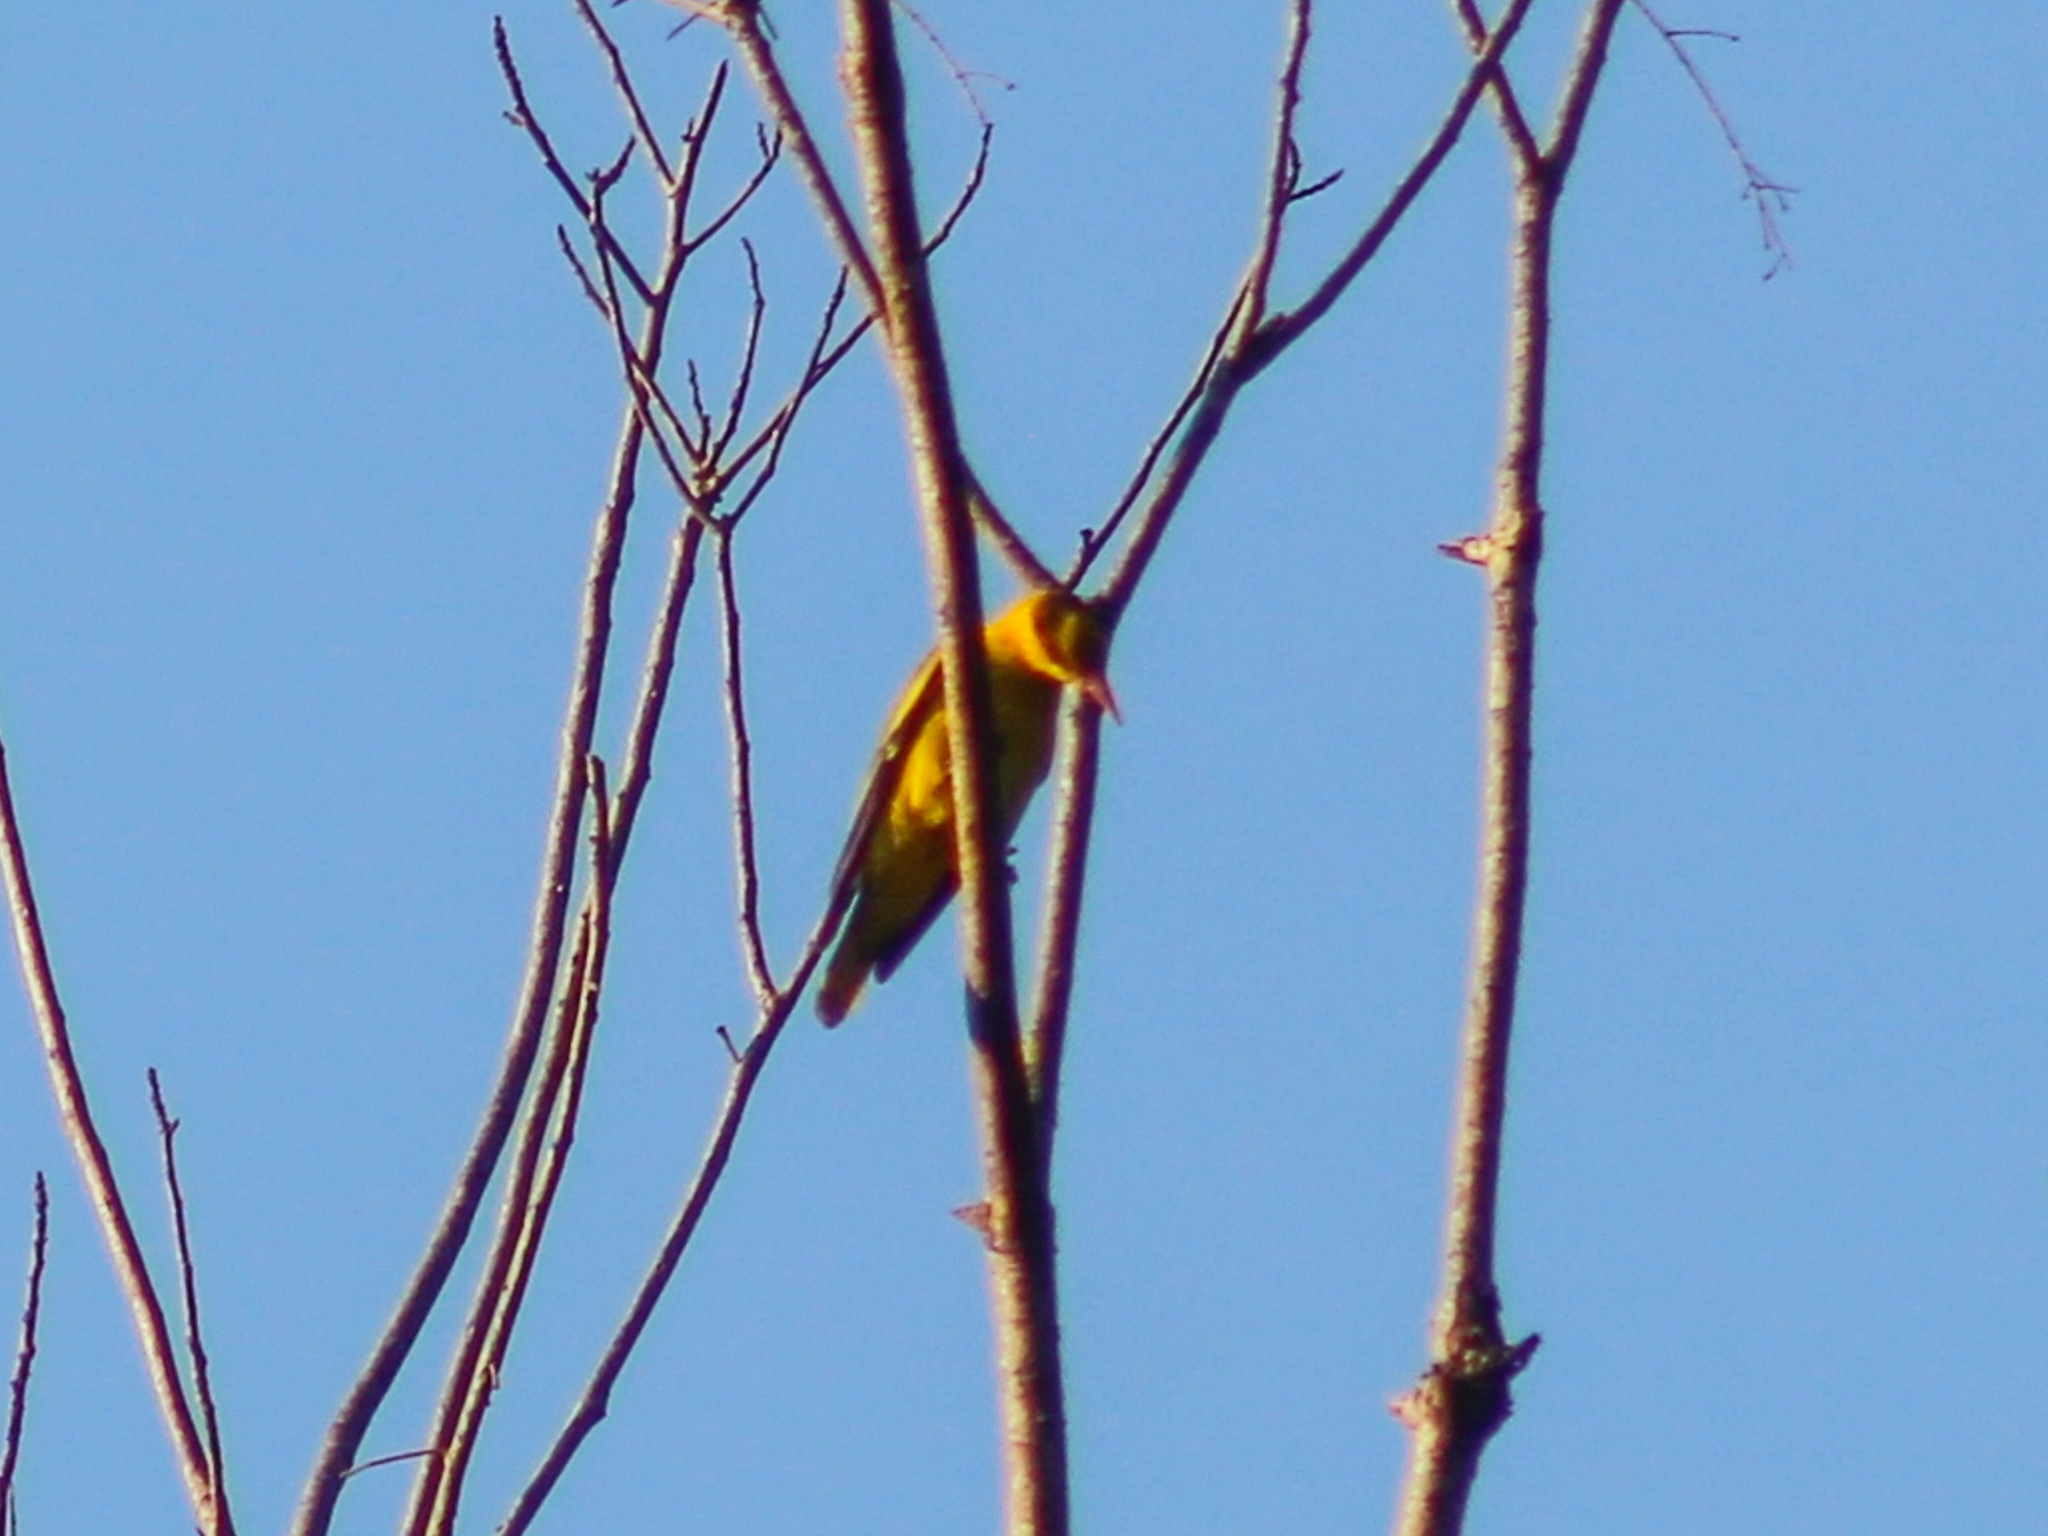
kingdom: Animalia
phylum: Chordata
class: Aves
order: Passeriformes
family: Oriolidae
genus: Oriolus
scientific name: Oriolus chinensis
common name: Black-naped oriole
